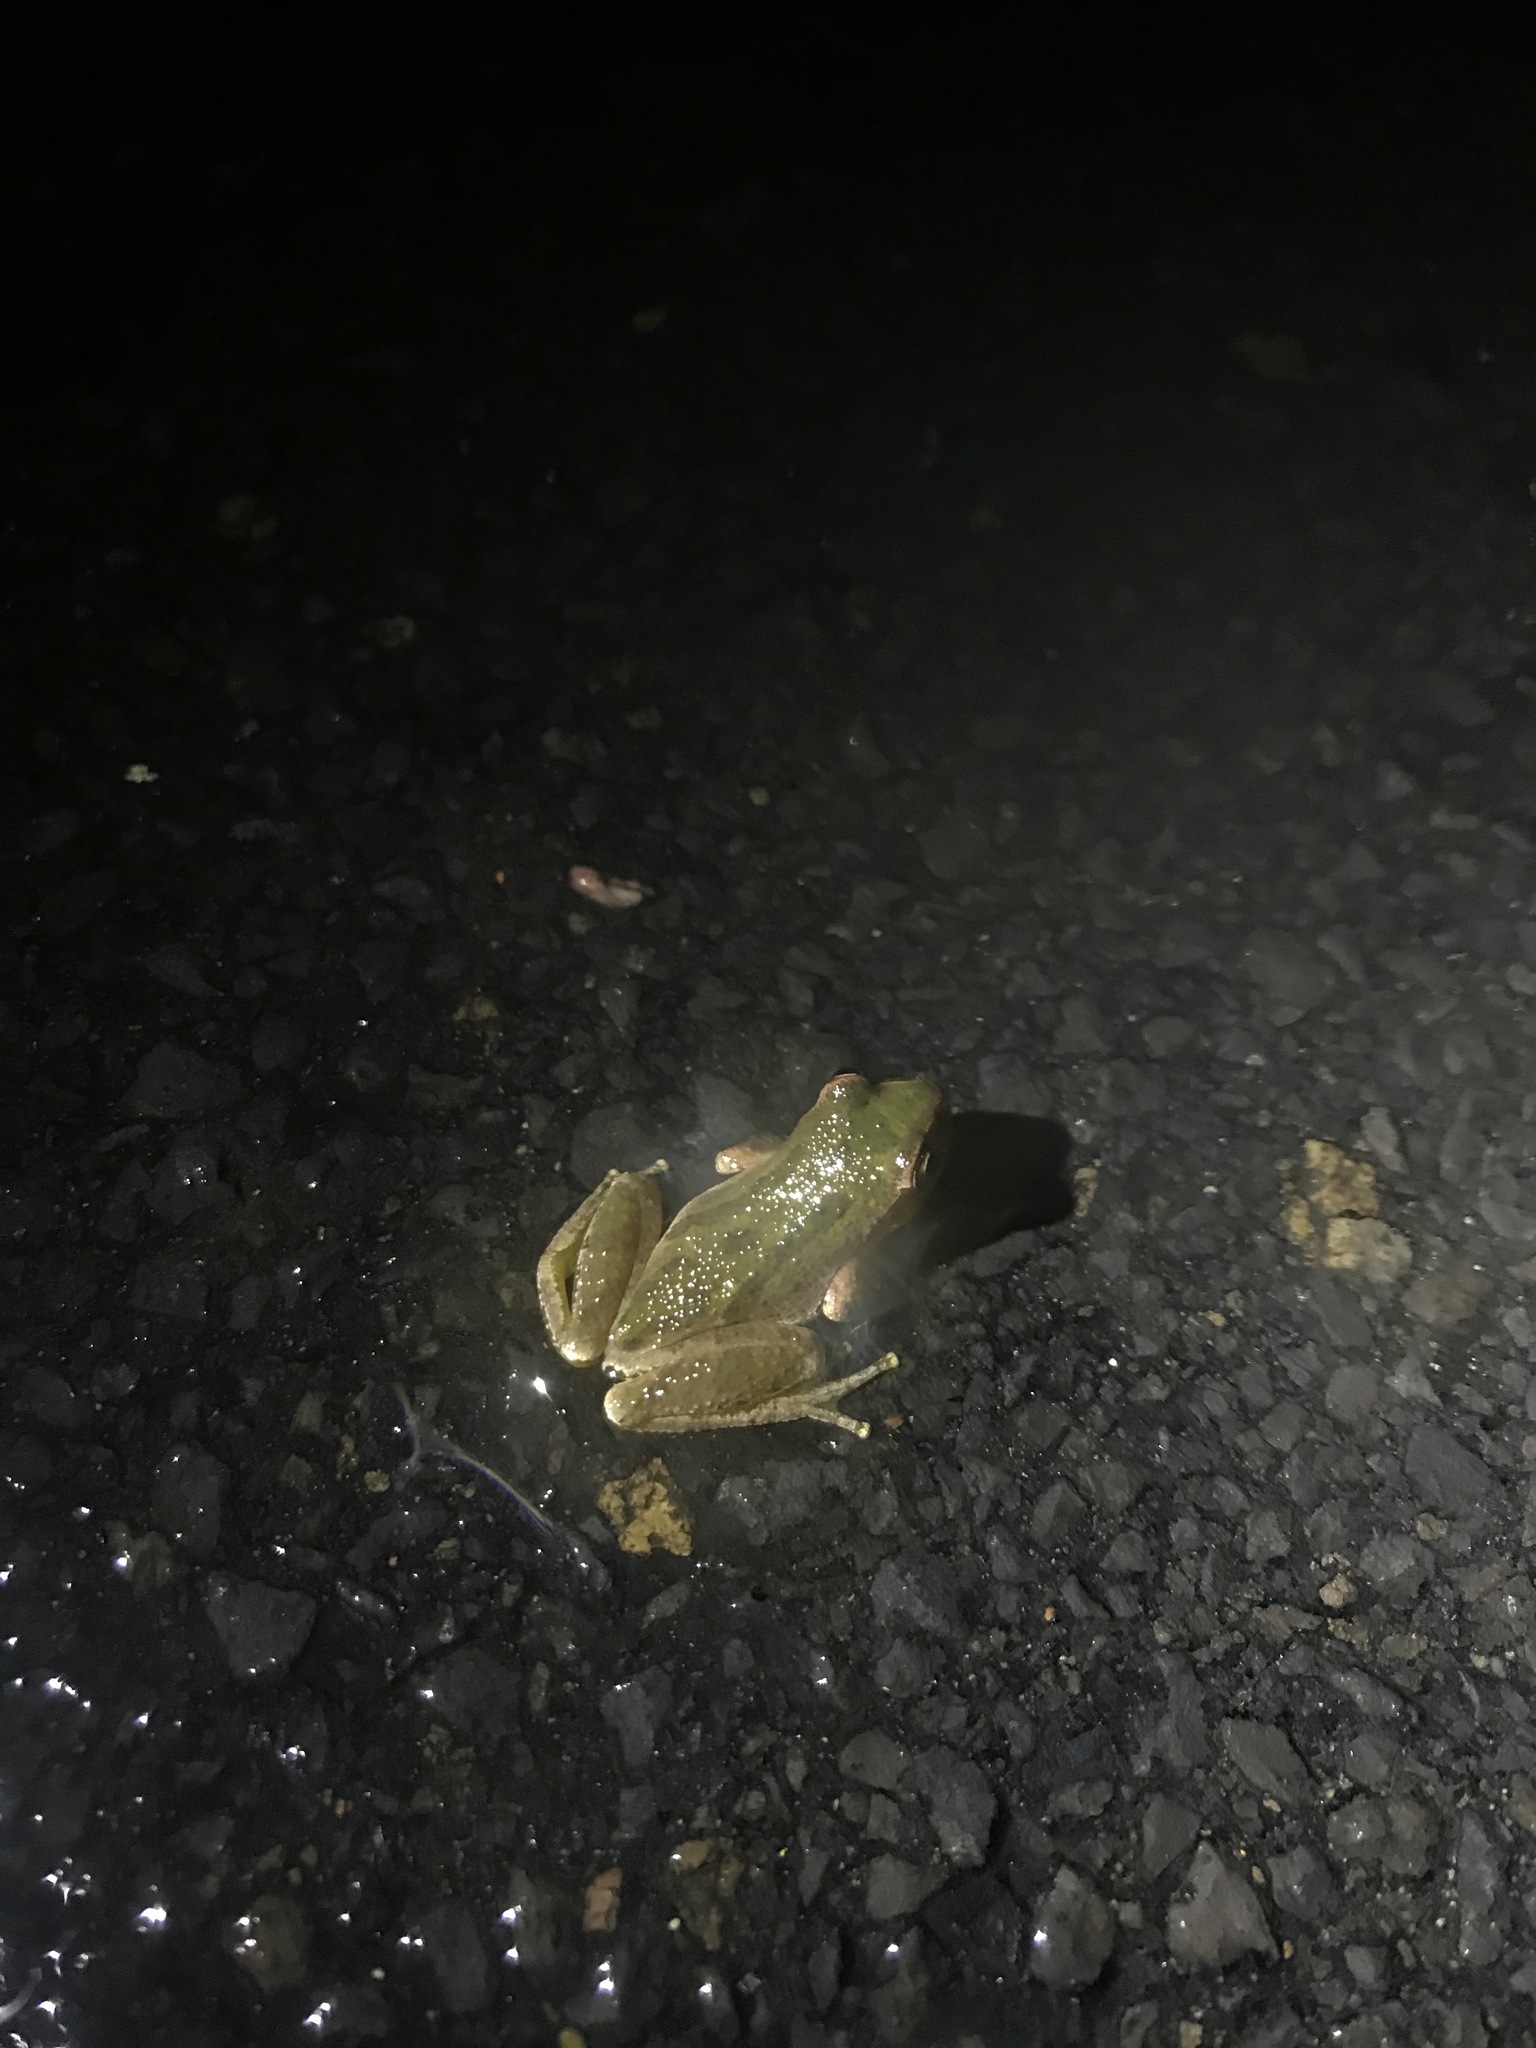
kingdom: Animalia
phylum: Chordata
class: Amphibia
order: Anura
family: Hylidae
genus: Pseudacris
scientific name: Pseudacris regilla
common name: Pacific chorus frog
